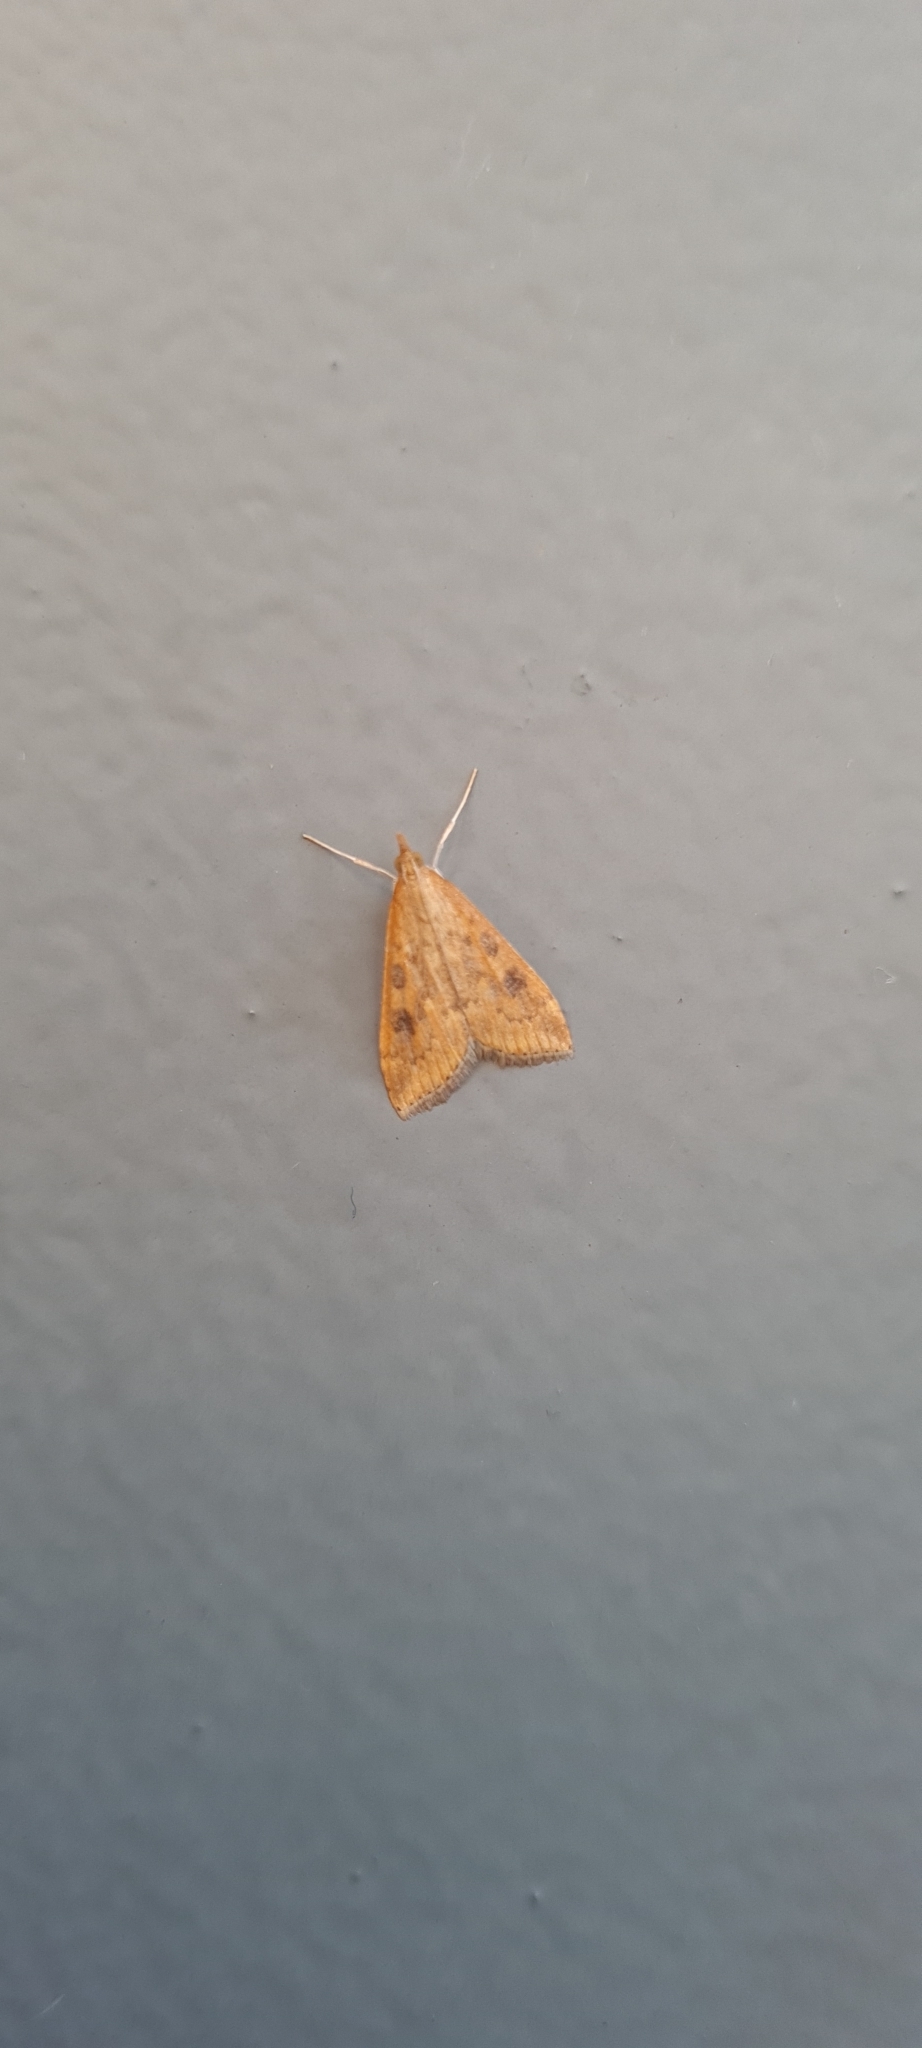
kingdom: Animalia
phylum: Arthropoda
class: Insecta
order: Lepidoptera
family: Crambidae
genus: Udea
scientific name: Udea ferrugalis
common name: Rusty dot
